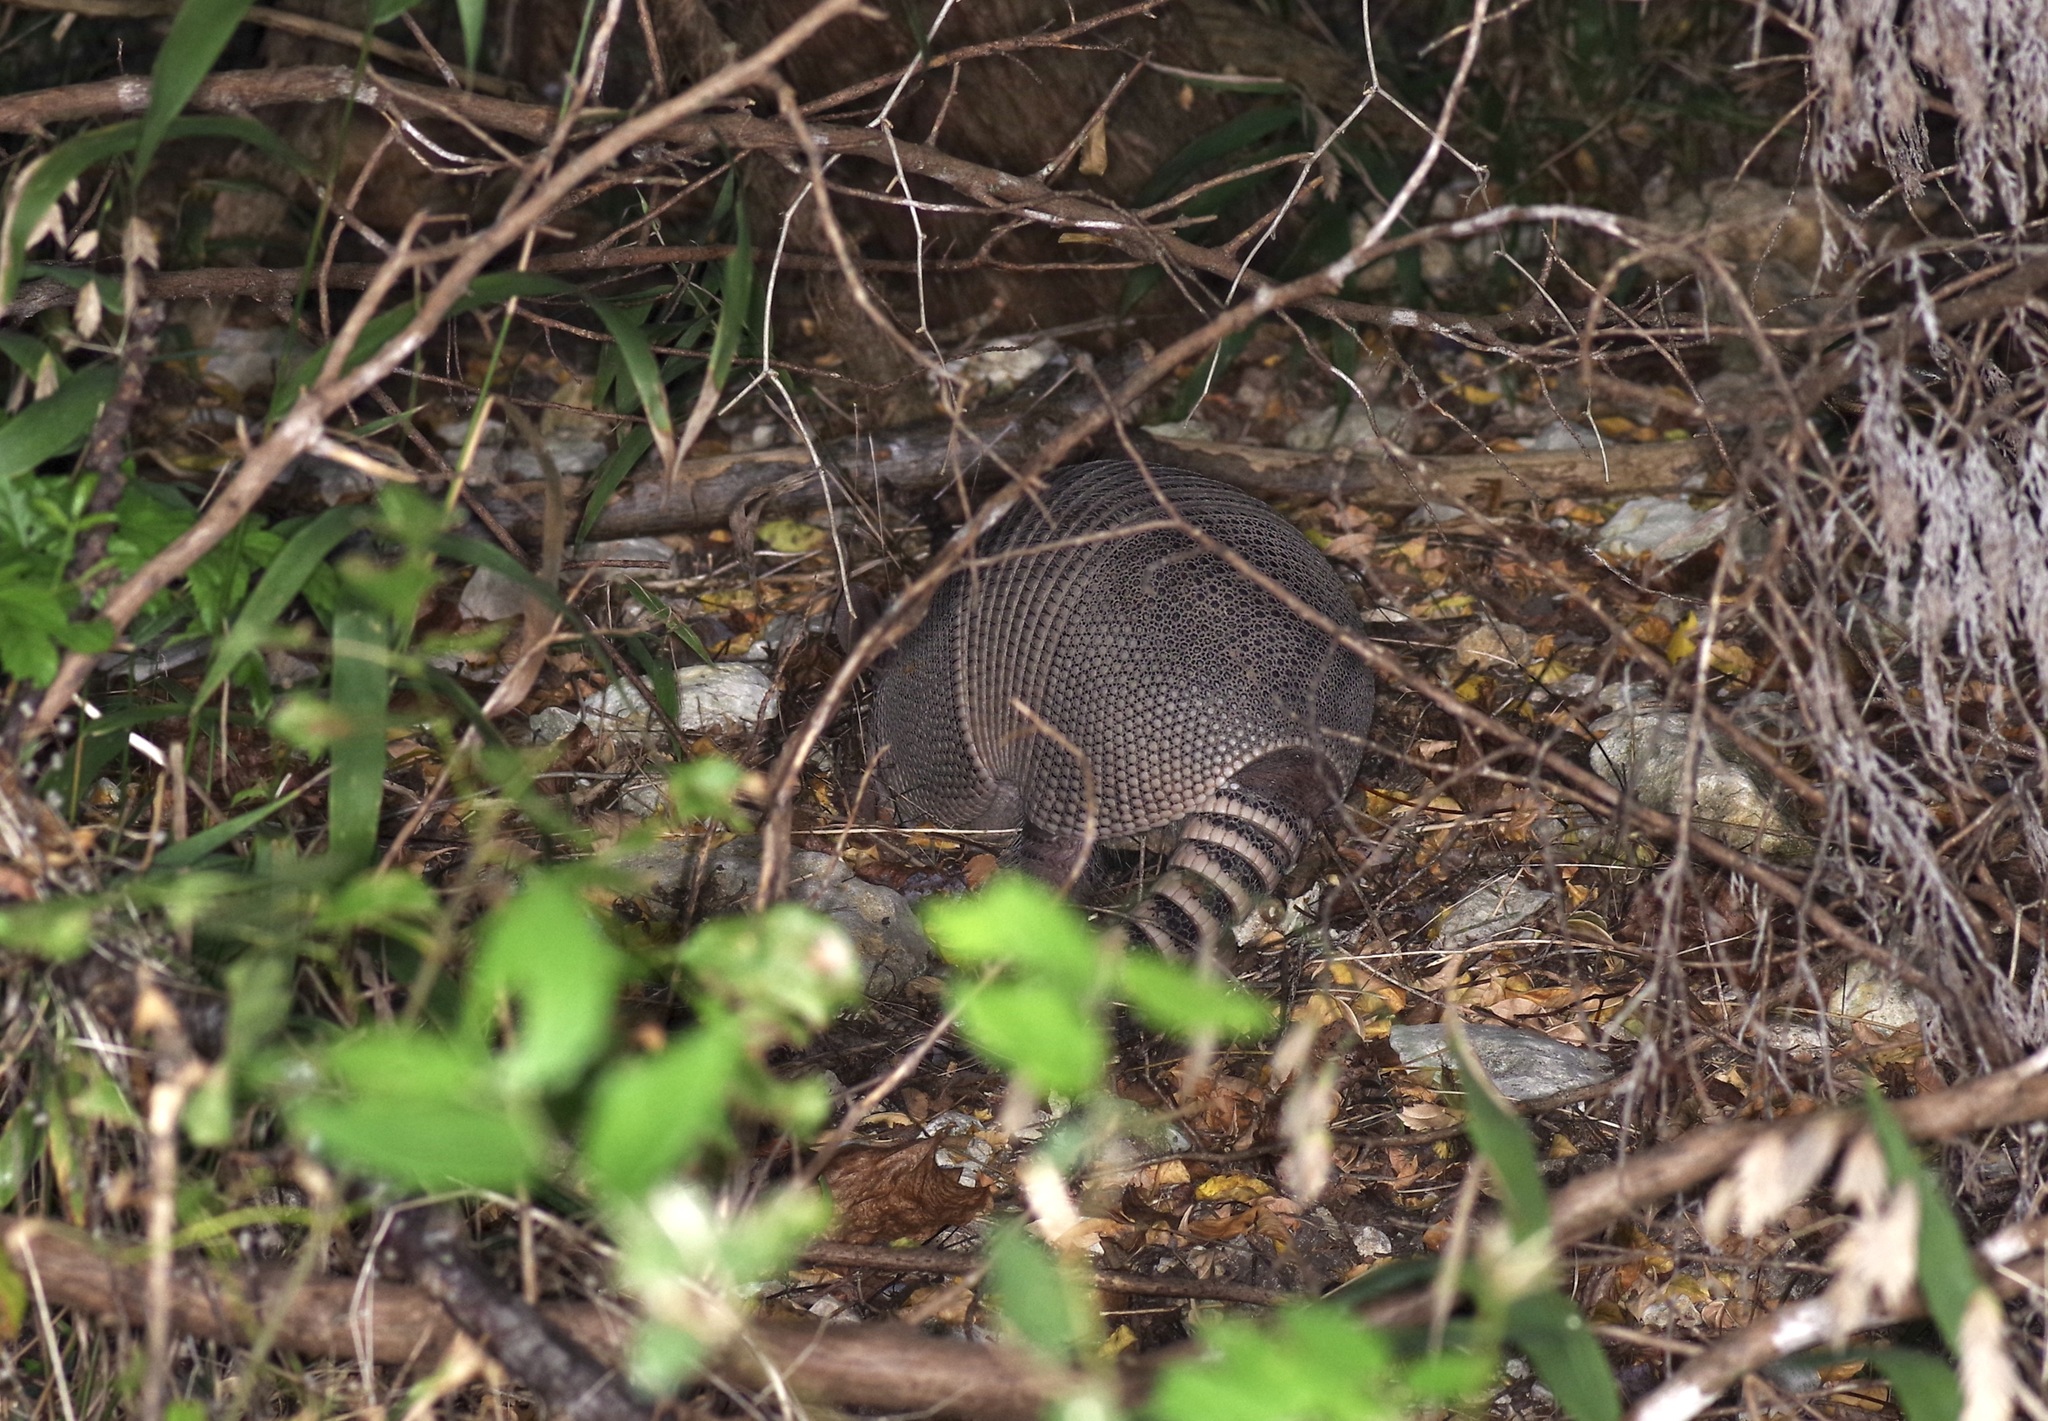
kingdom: Animalia
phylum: Chordata
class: Mammalia
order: Cingulata
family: Dasypodidae
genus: Dasypus
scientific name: Dasypus novemcinctus
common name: Nine-banded armadillo
